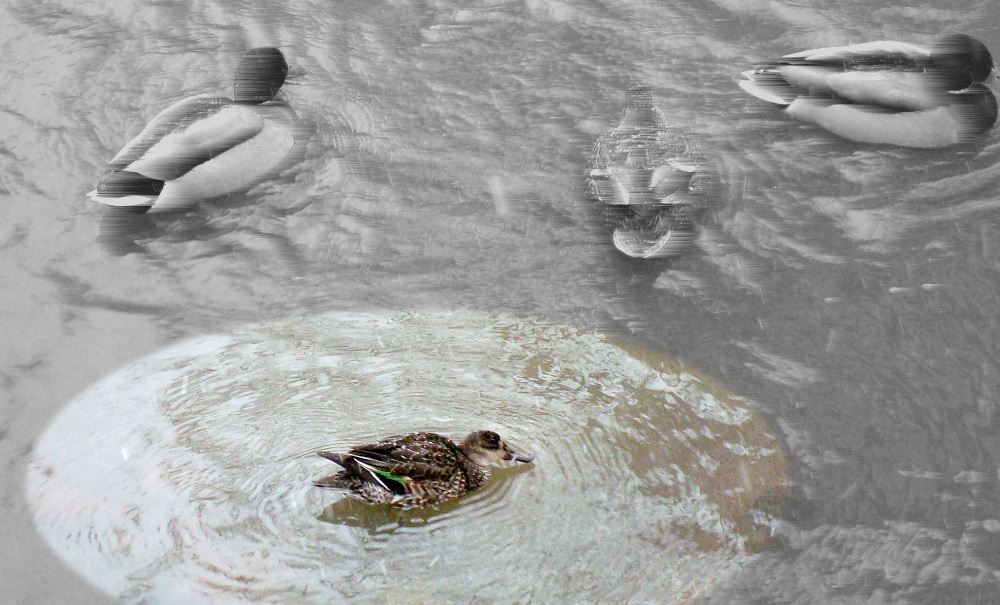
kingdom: Animalia
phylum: Chordata
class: Aves
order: Anseriformes
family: Anatidae
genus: Anas
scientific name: Anas crecca
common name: Eurasian teal
